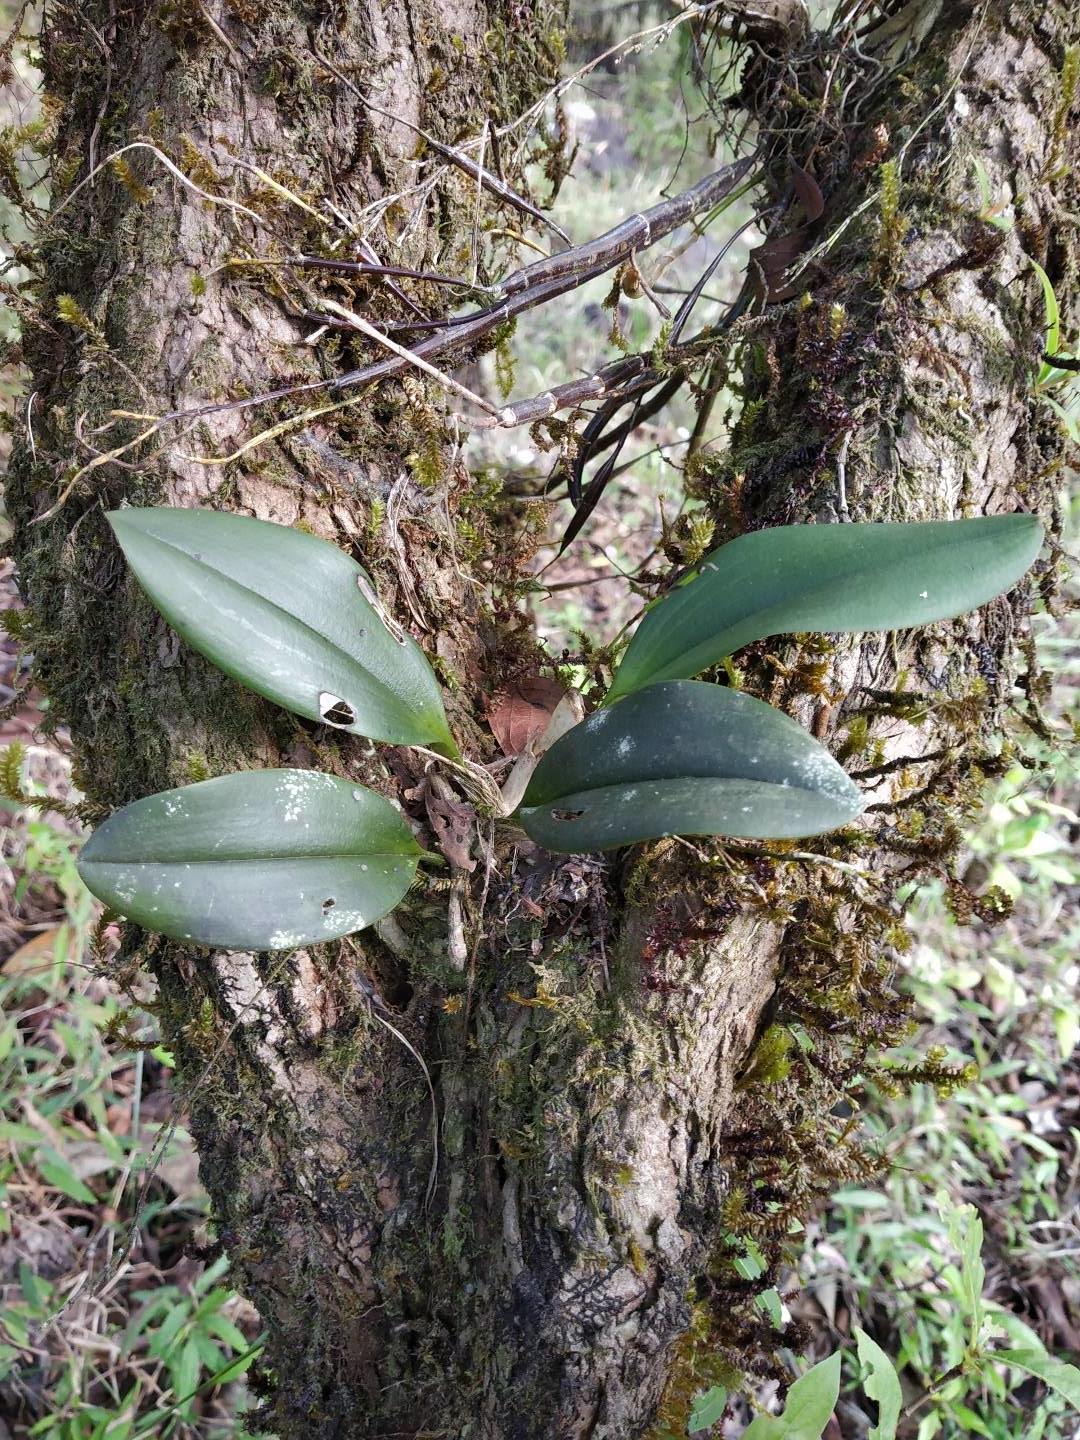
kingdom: Plantae
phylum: Tracheophyta
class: Liliopsida
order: Asparagales
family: Orchidaceae
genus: Sirhookera
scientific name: Sirhookera latifolia
